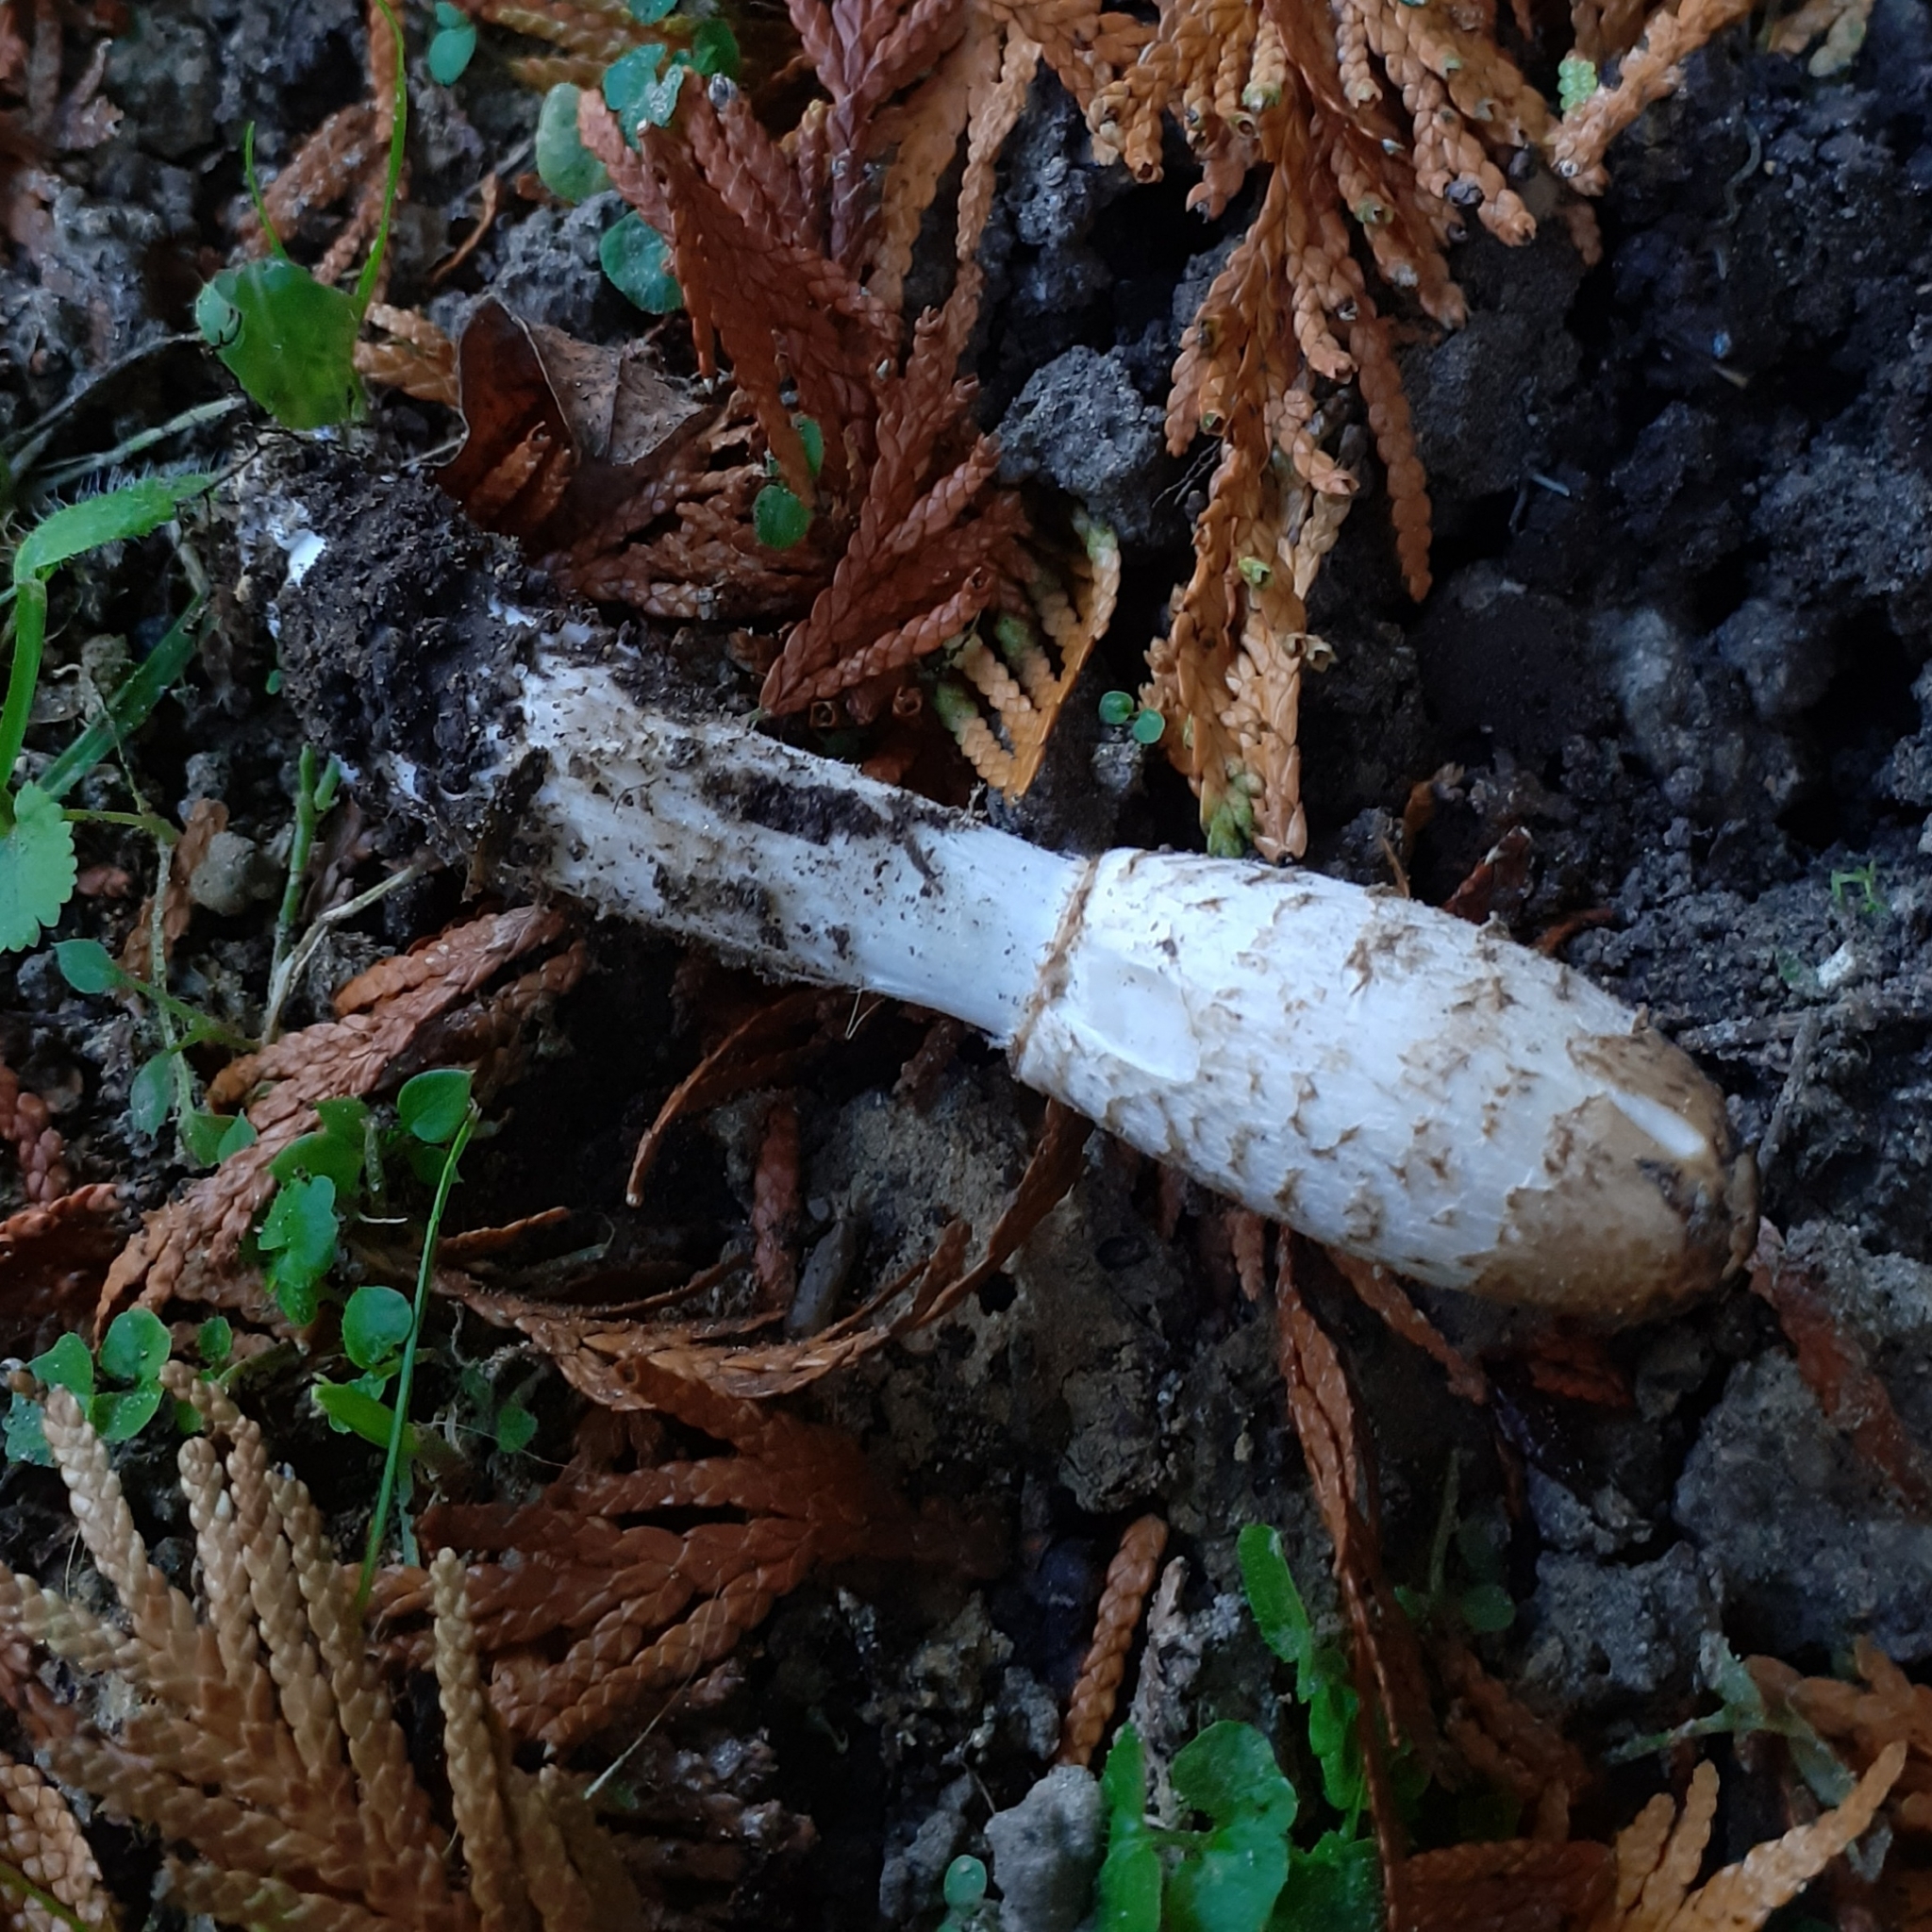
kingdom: Fungi
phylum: Basidiomycota
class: Agaricomycetes
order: Agaricales
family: Agaricaceae
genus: Coprinus
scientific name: Coprinus comatus
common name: Lawyer's wig
